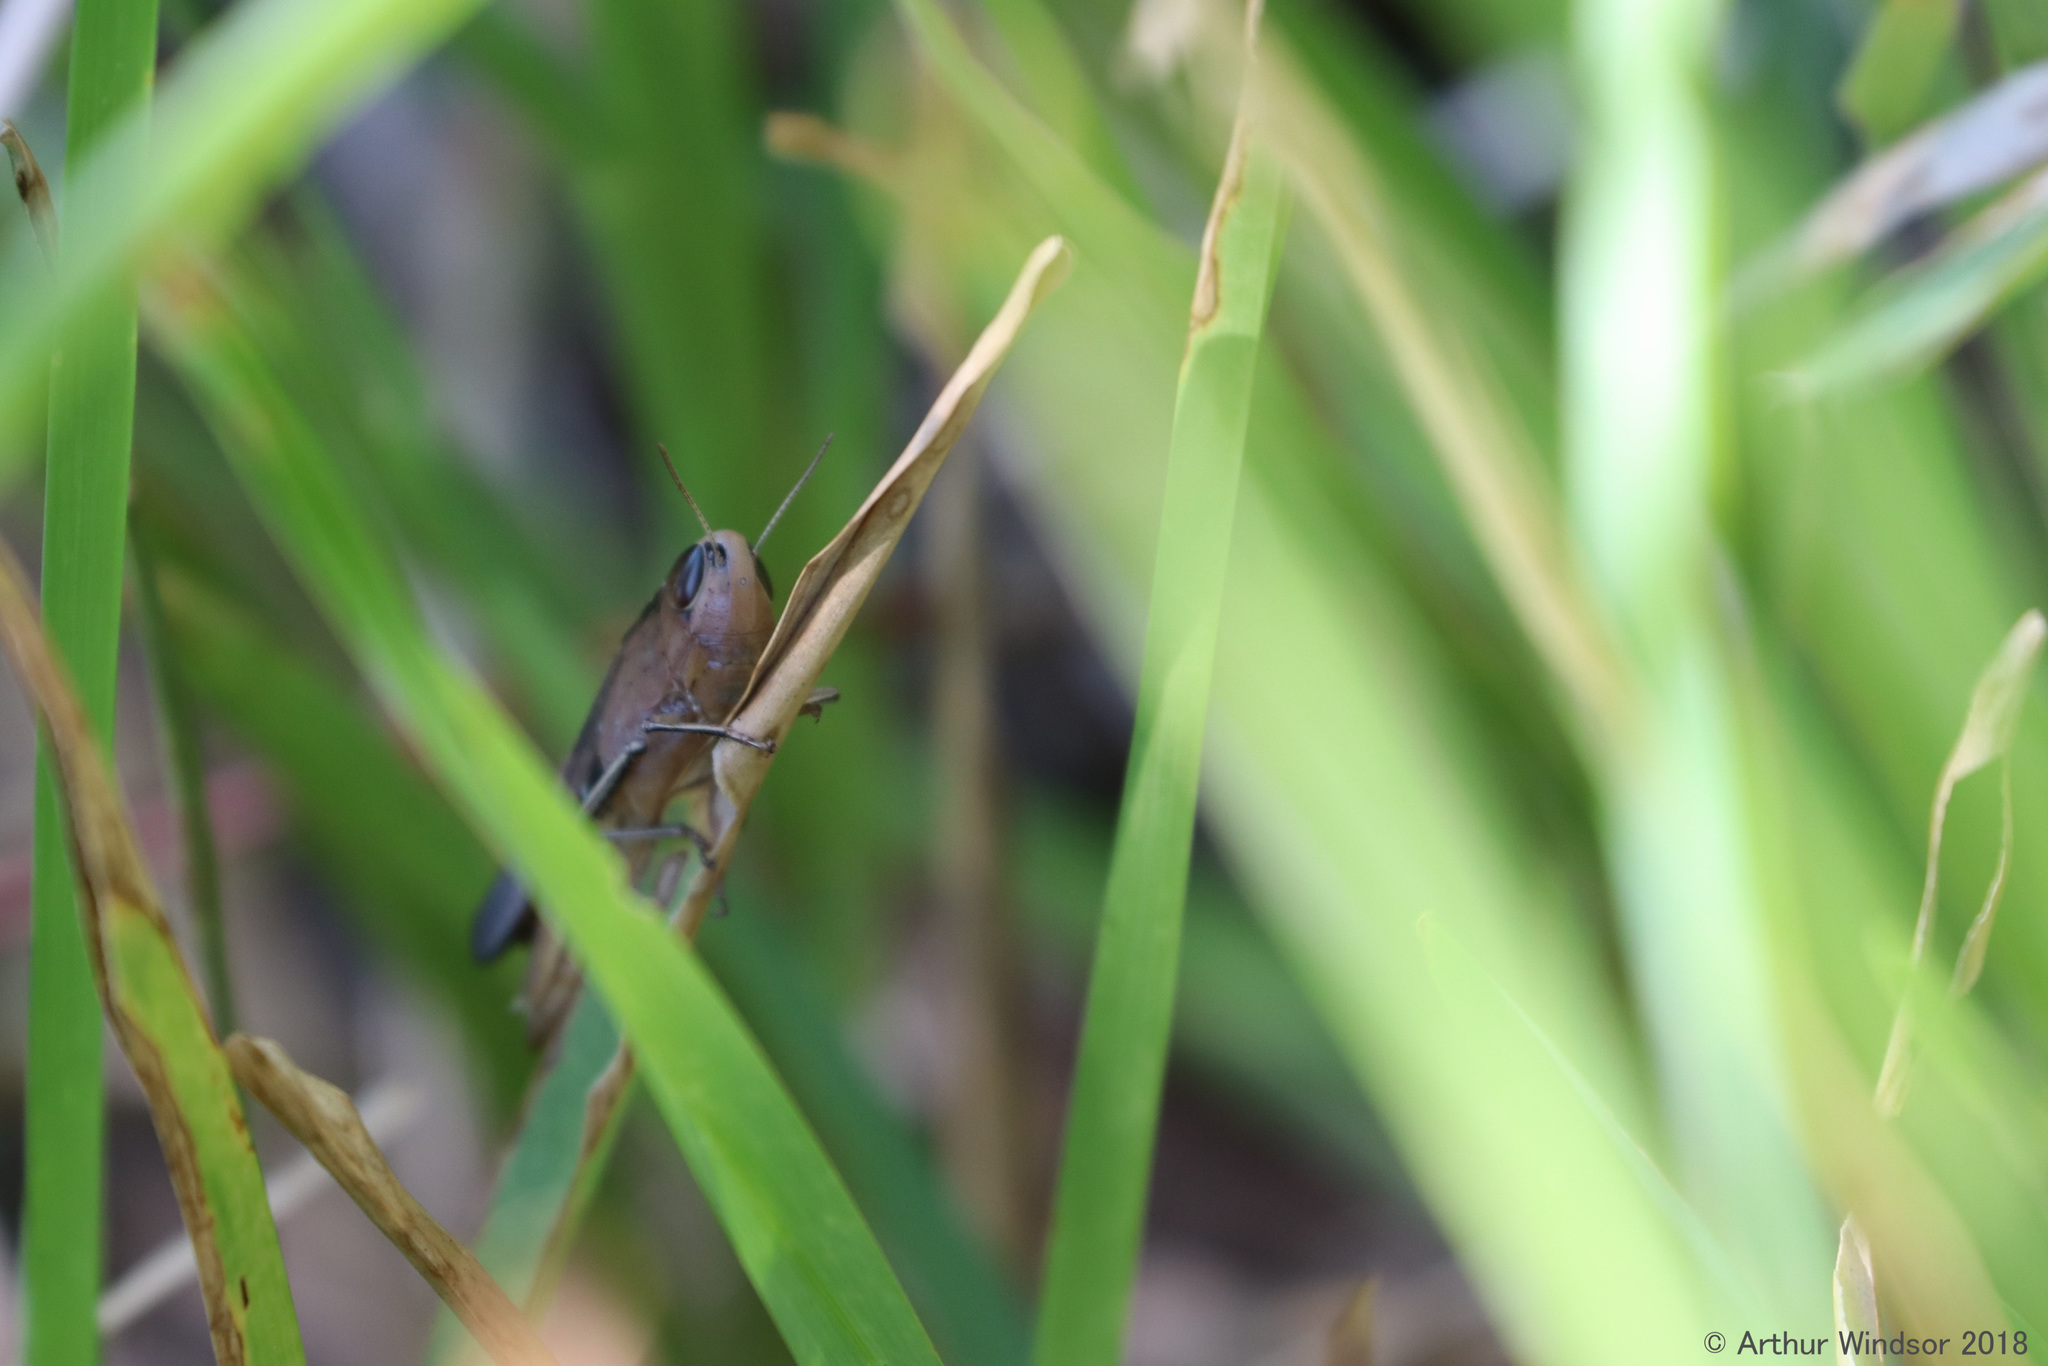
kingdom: Animalia
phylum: Arthropoda
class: Insecta
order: Orthoptera
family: Acrididae
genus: Amblytropidia
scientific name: Amblytropidia mysteca
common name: Brown winter grasshopper
